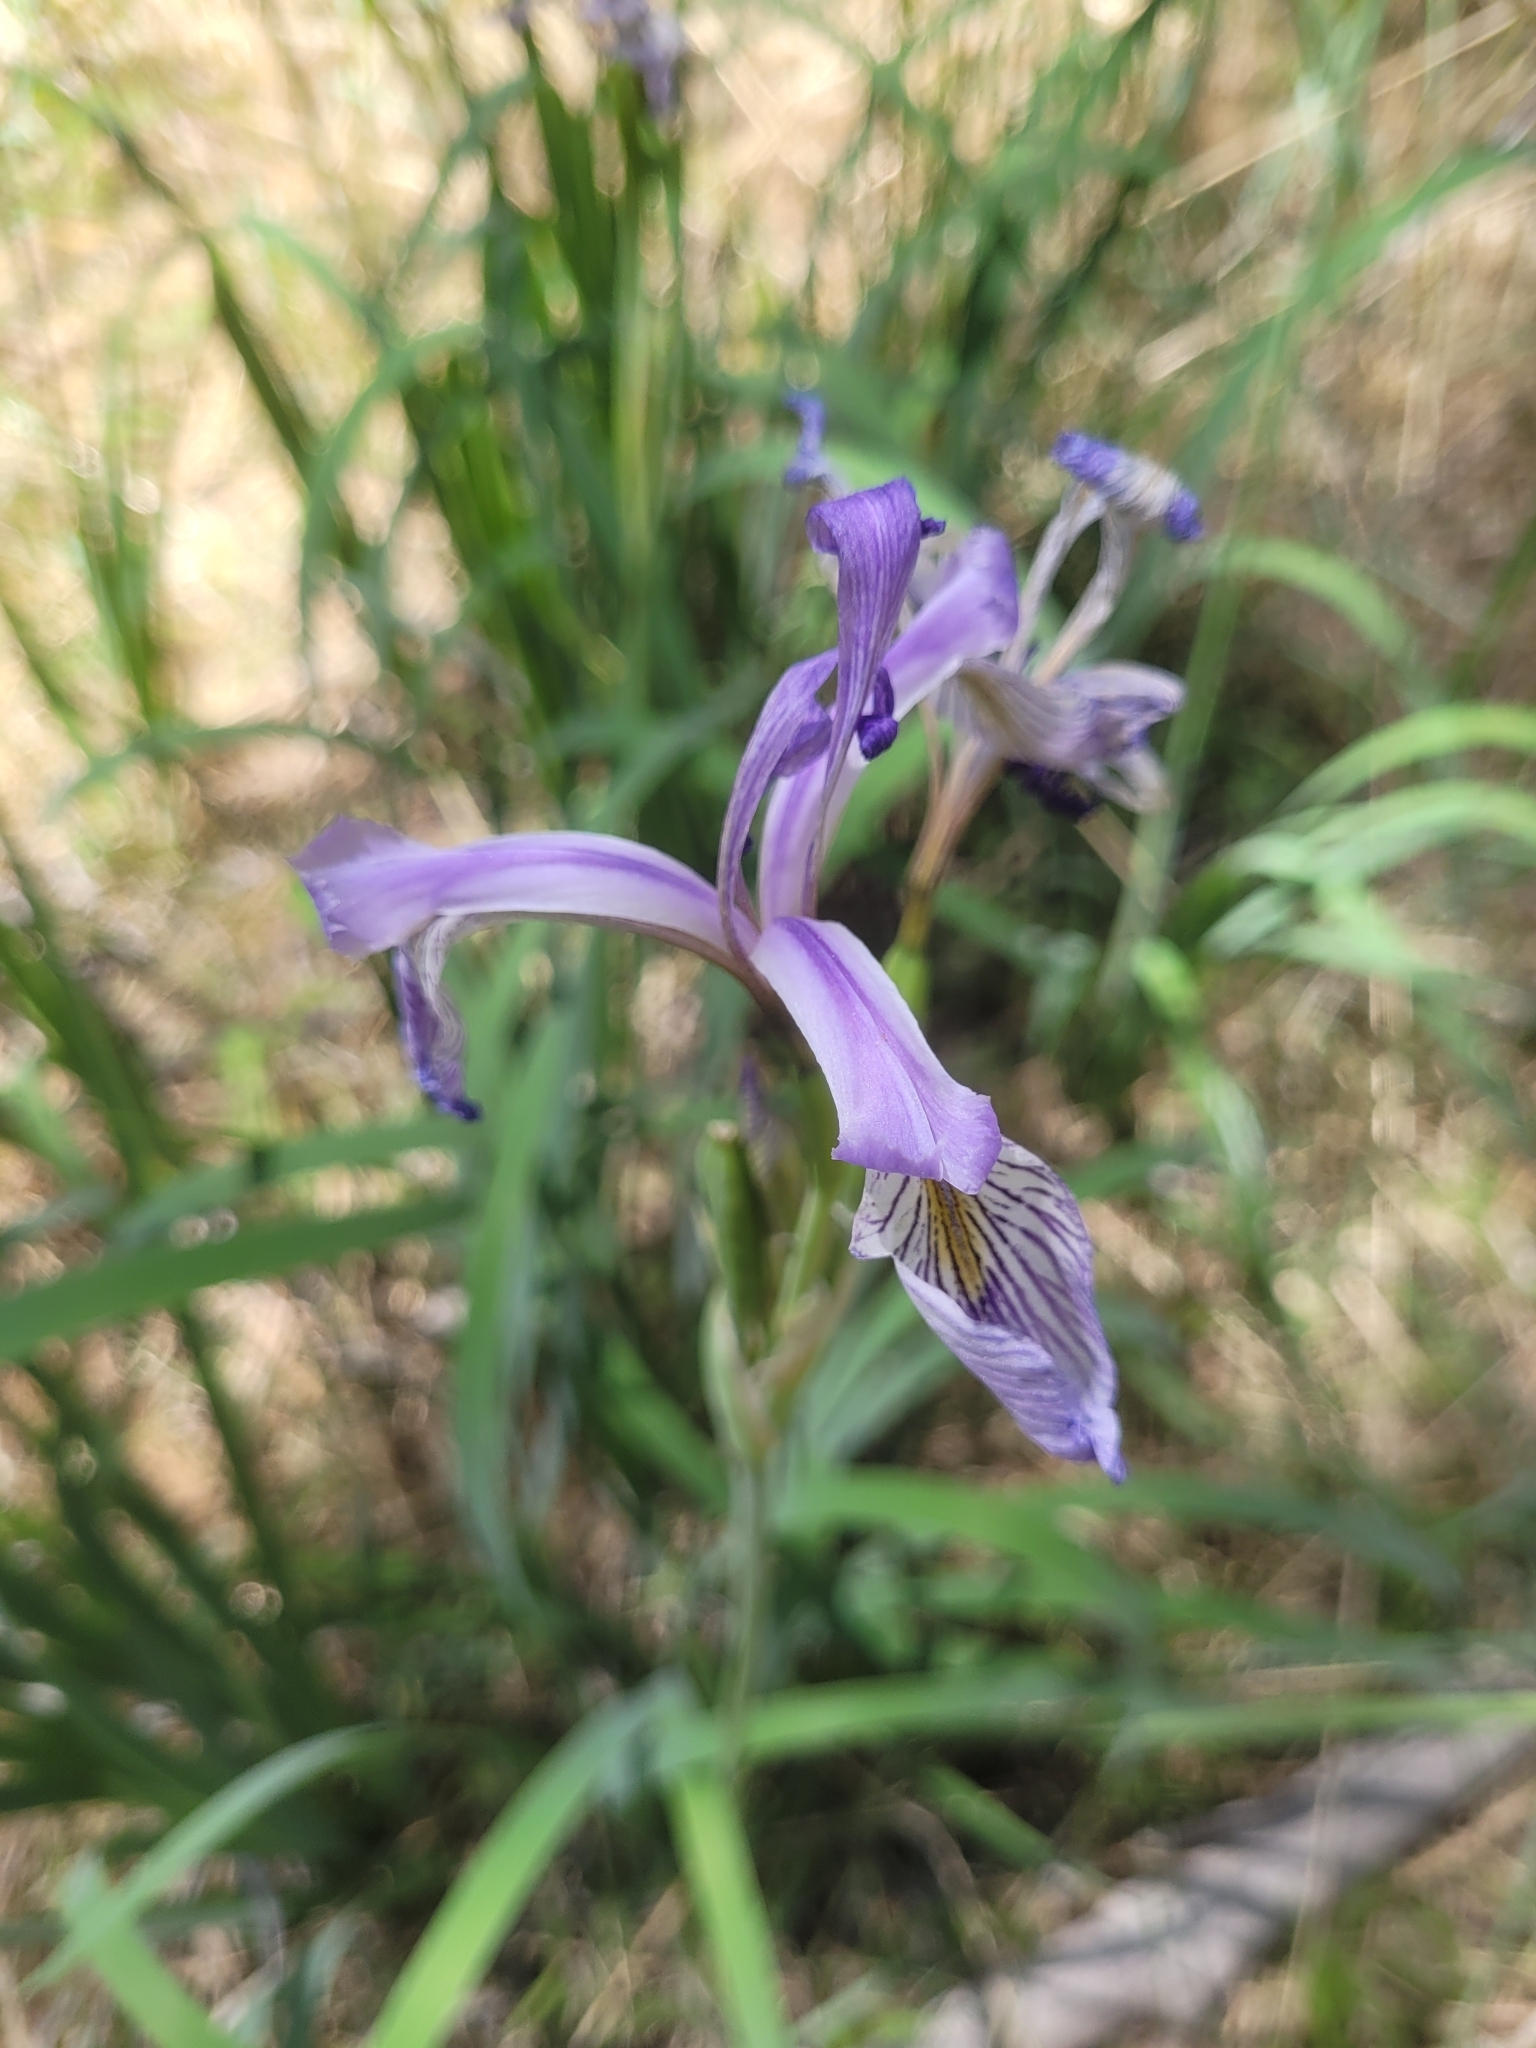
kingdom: Plantae
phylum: Tracheophyta
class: Liliopsida
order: Asparagales
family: Iridaceae
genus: Iris
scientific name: Iris missouriensis
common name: Rocky mountain iris
